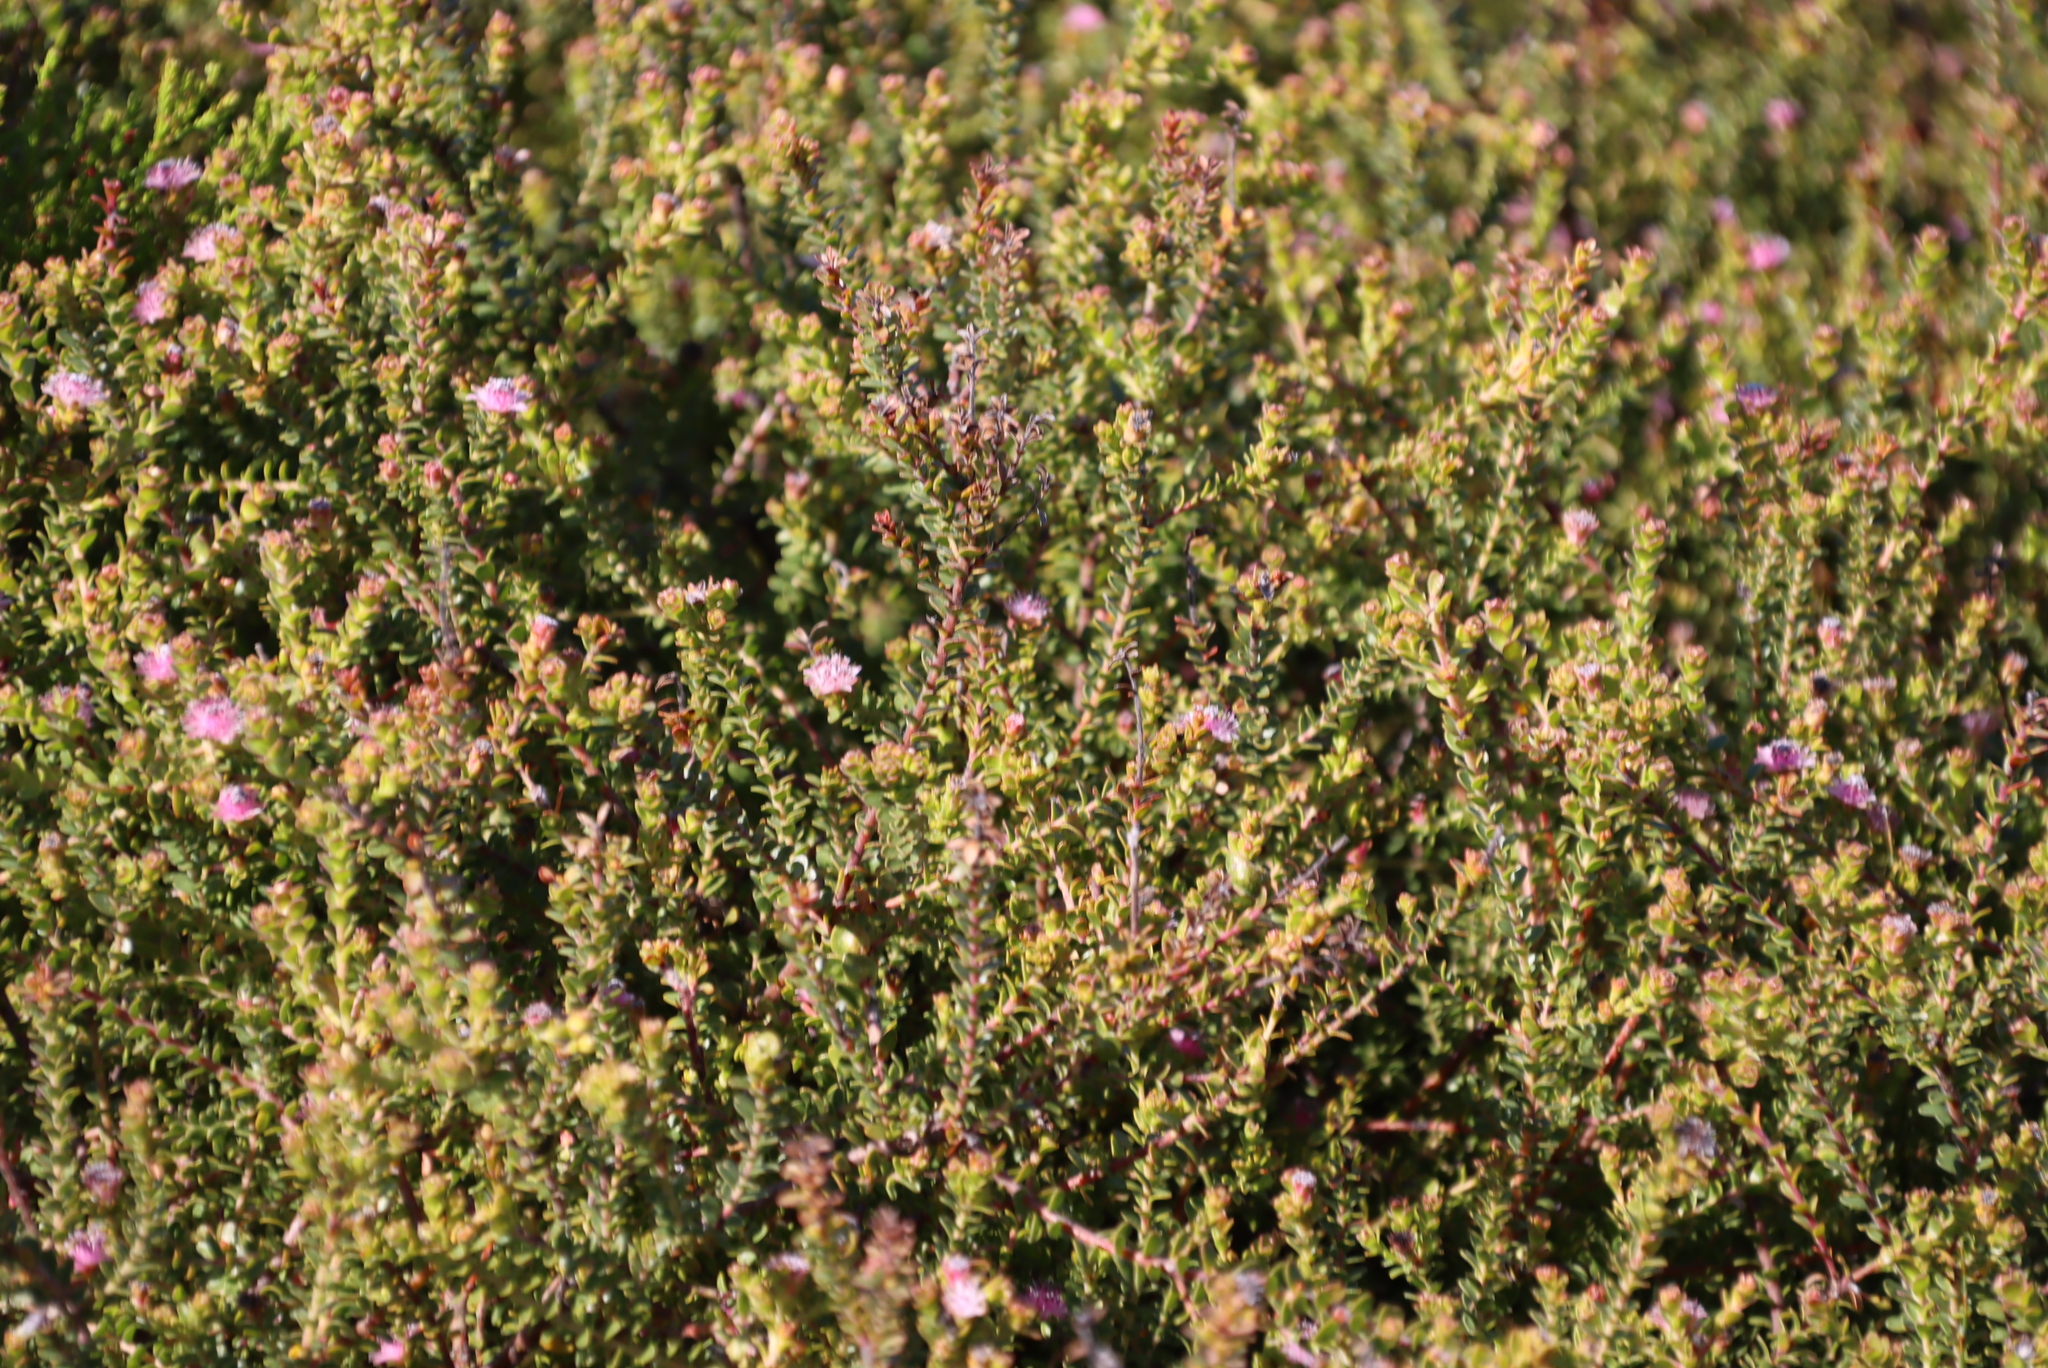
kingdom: Plantae
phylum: Tracheophyta
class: Magnoliopsida
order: Proteales
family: Proteaceae
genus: Diastella
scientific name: Diastella divaricata
